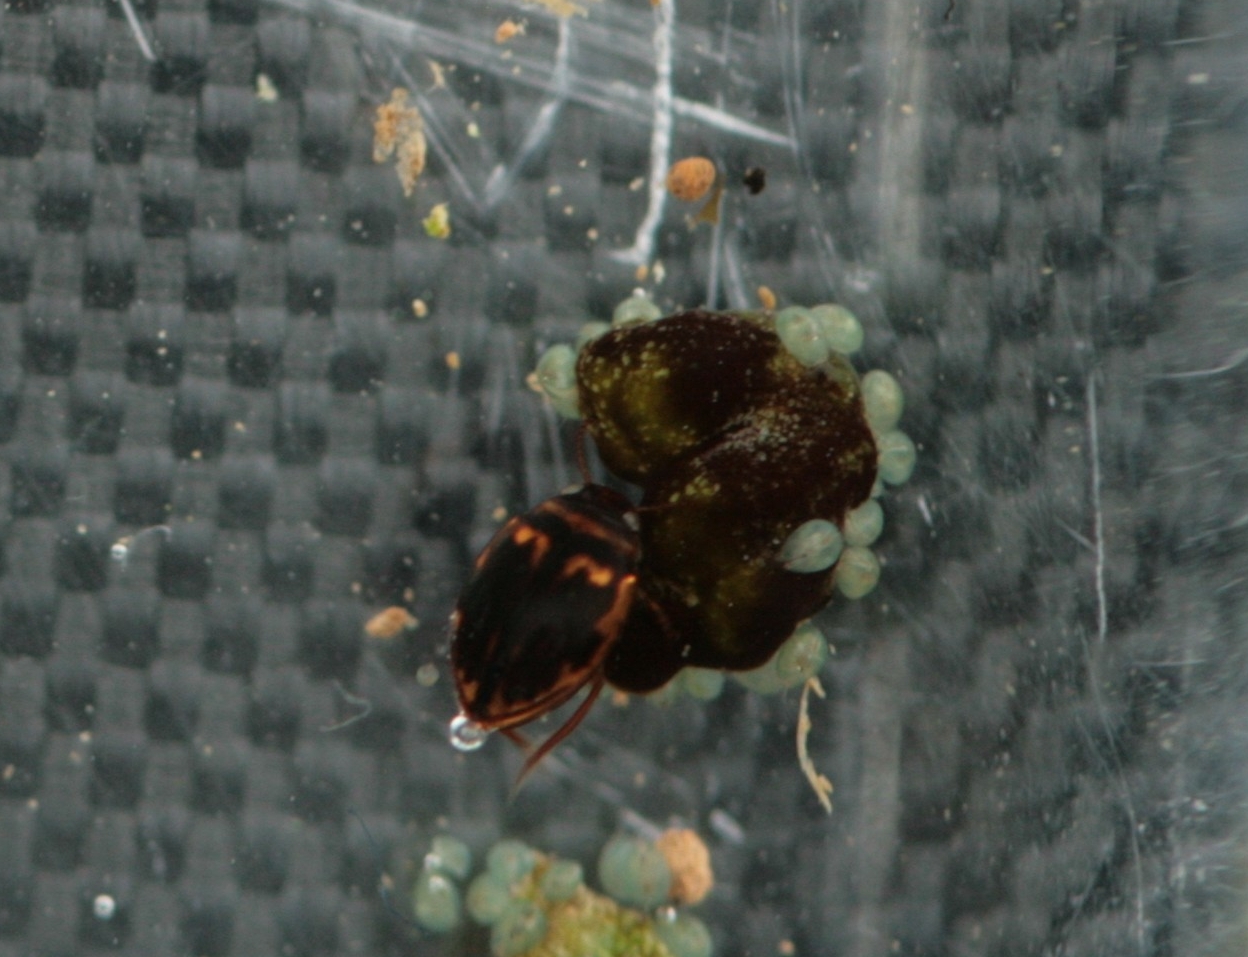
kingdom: Animalia
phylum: Arthropoda
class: Insecta
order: Coleoptera
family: Dytiscidae
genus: Hygrotus
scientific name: Hygrotus inaequalis
